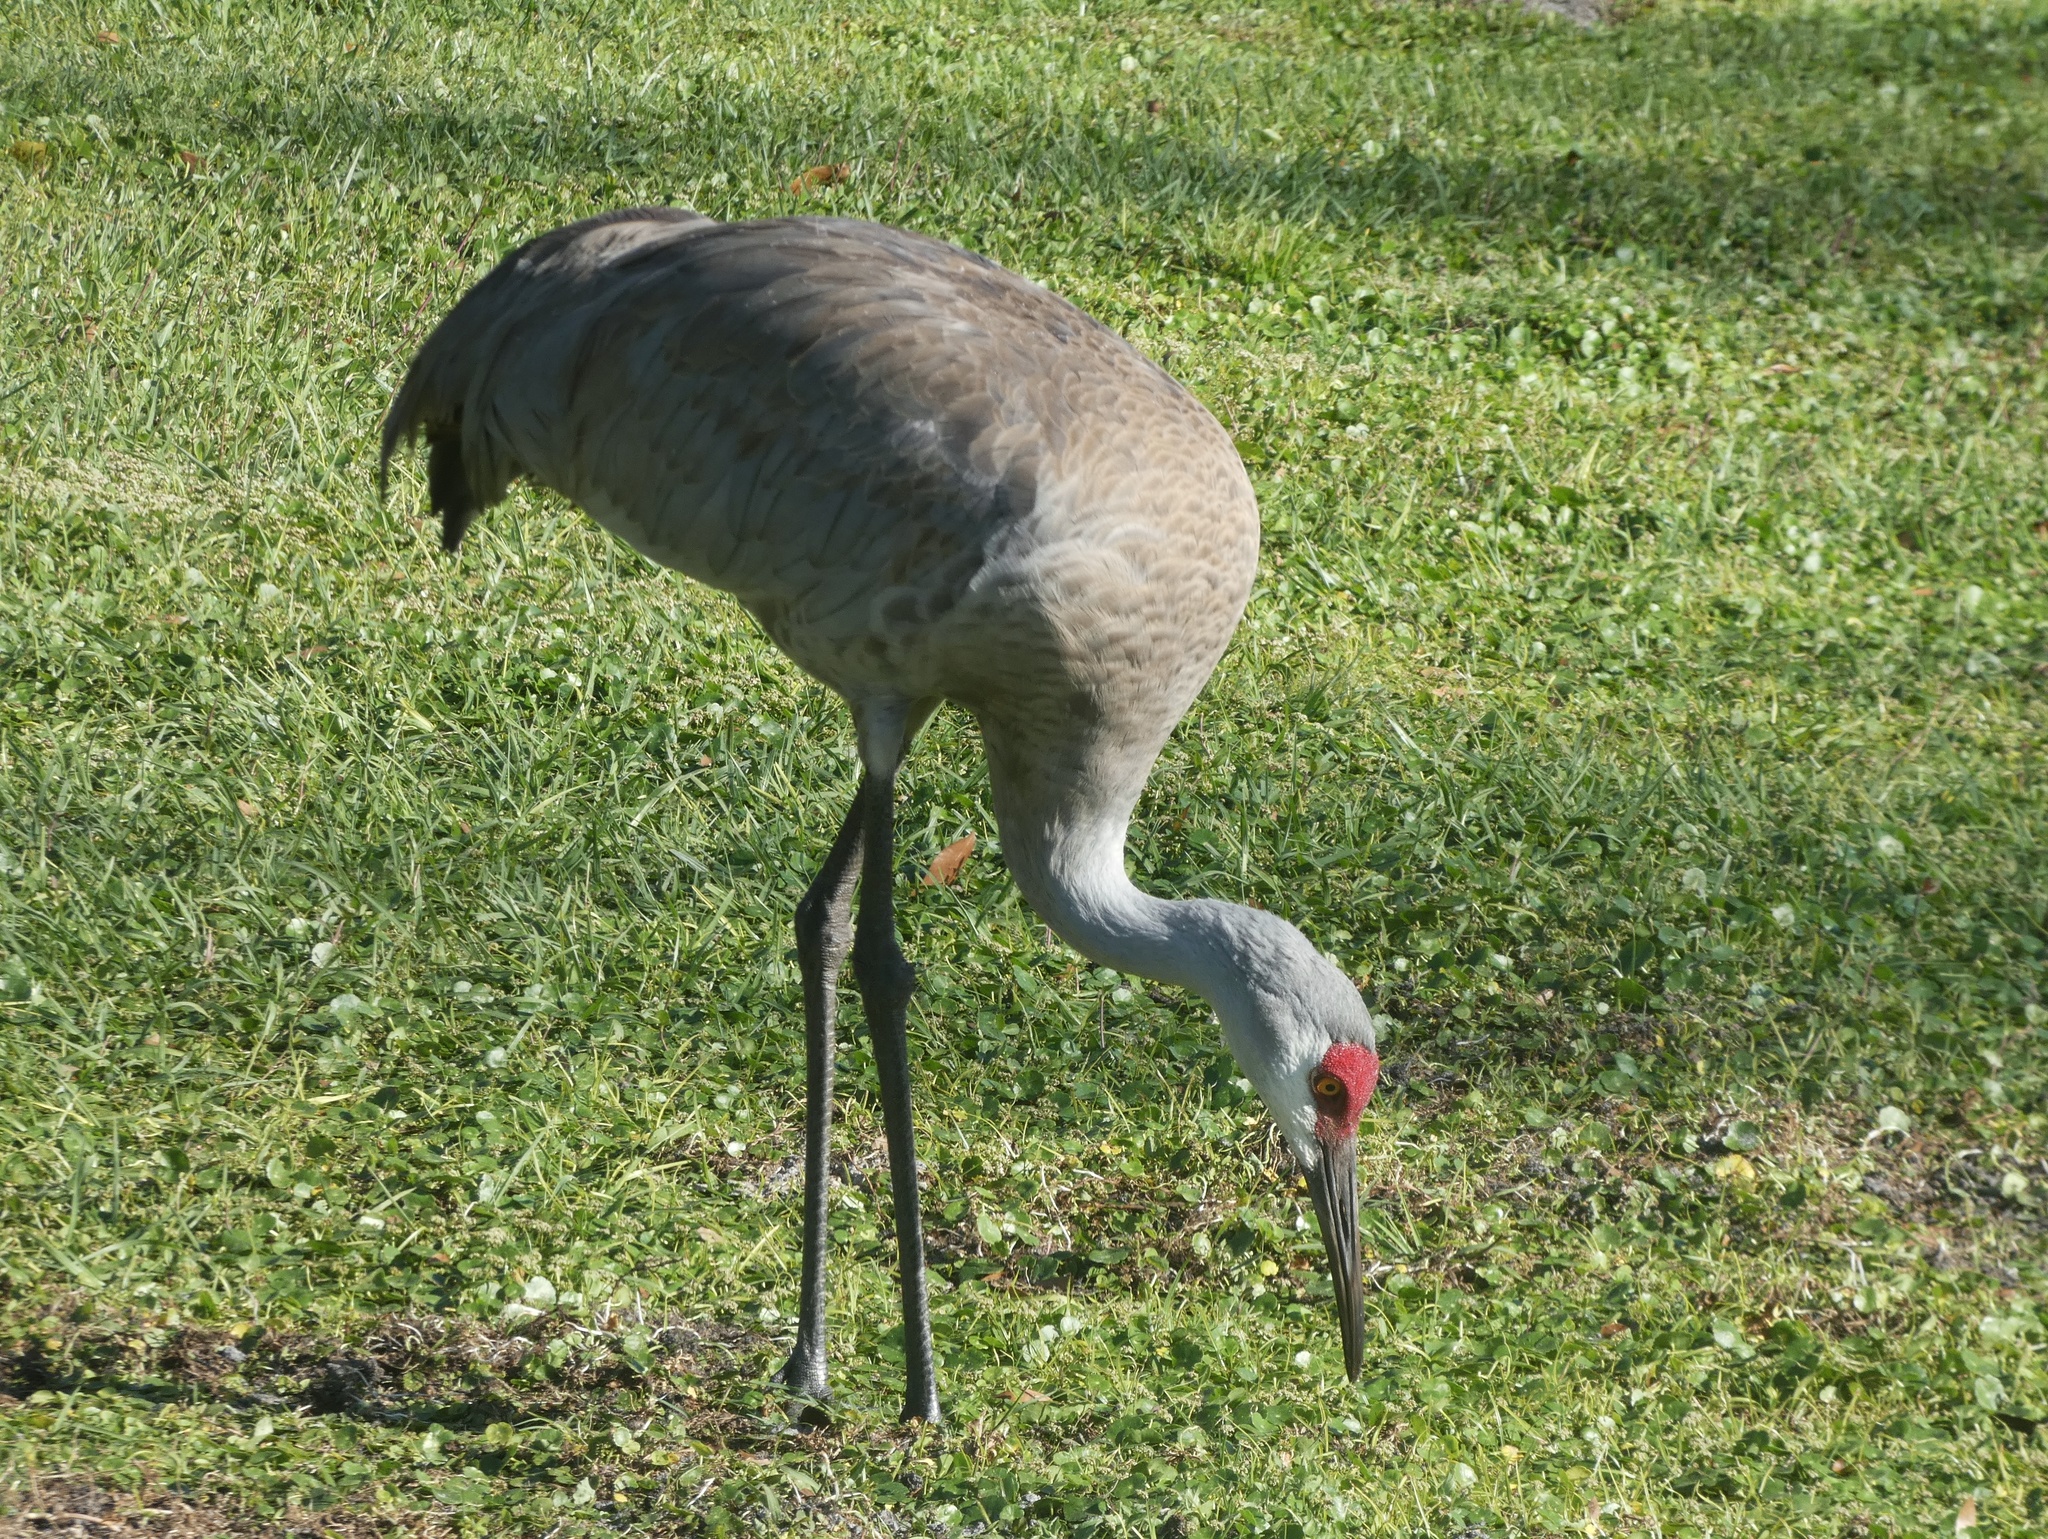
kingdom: Animalia
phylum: Chordata
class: Aves
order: Gruiformes
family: Gruidae
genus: Grus
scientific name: Grus canadensis
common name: Sandhill crane
